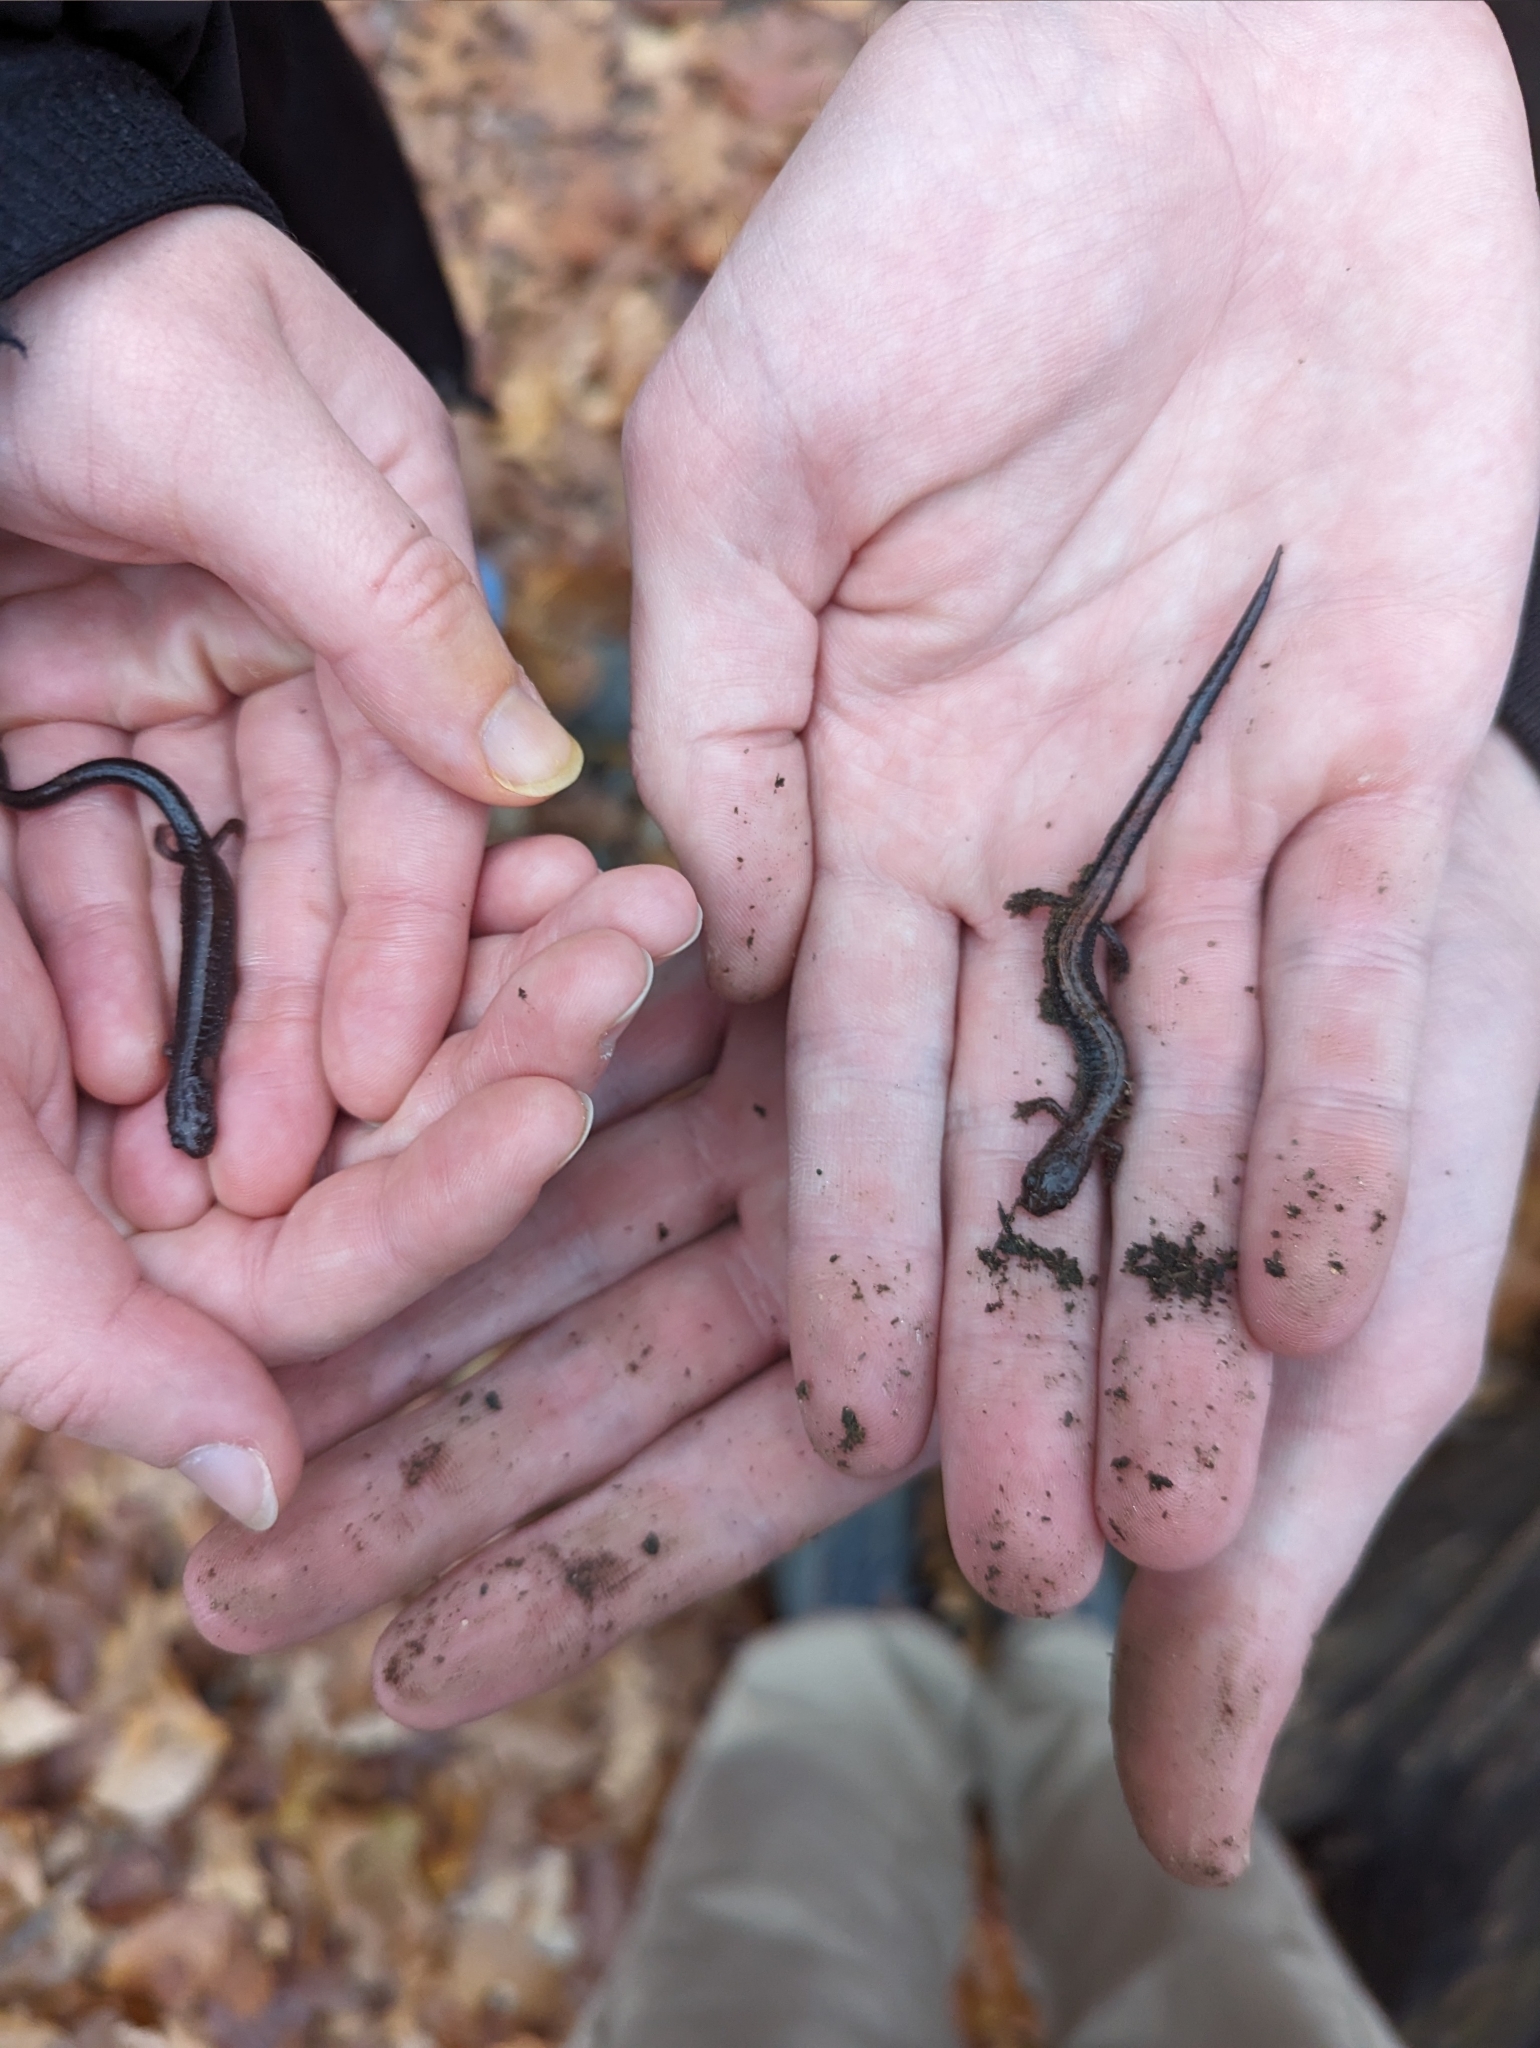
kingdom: Animalia
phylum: Chordata
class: Amphibia
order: Caudata
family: Plethodontidae
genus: Plethodon
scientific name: Plethodon cinereus
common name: Redback salamander
